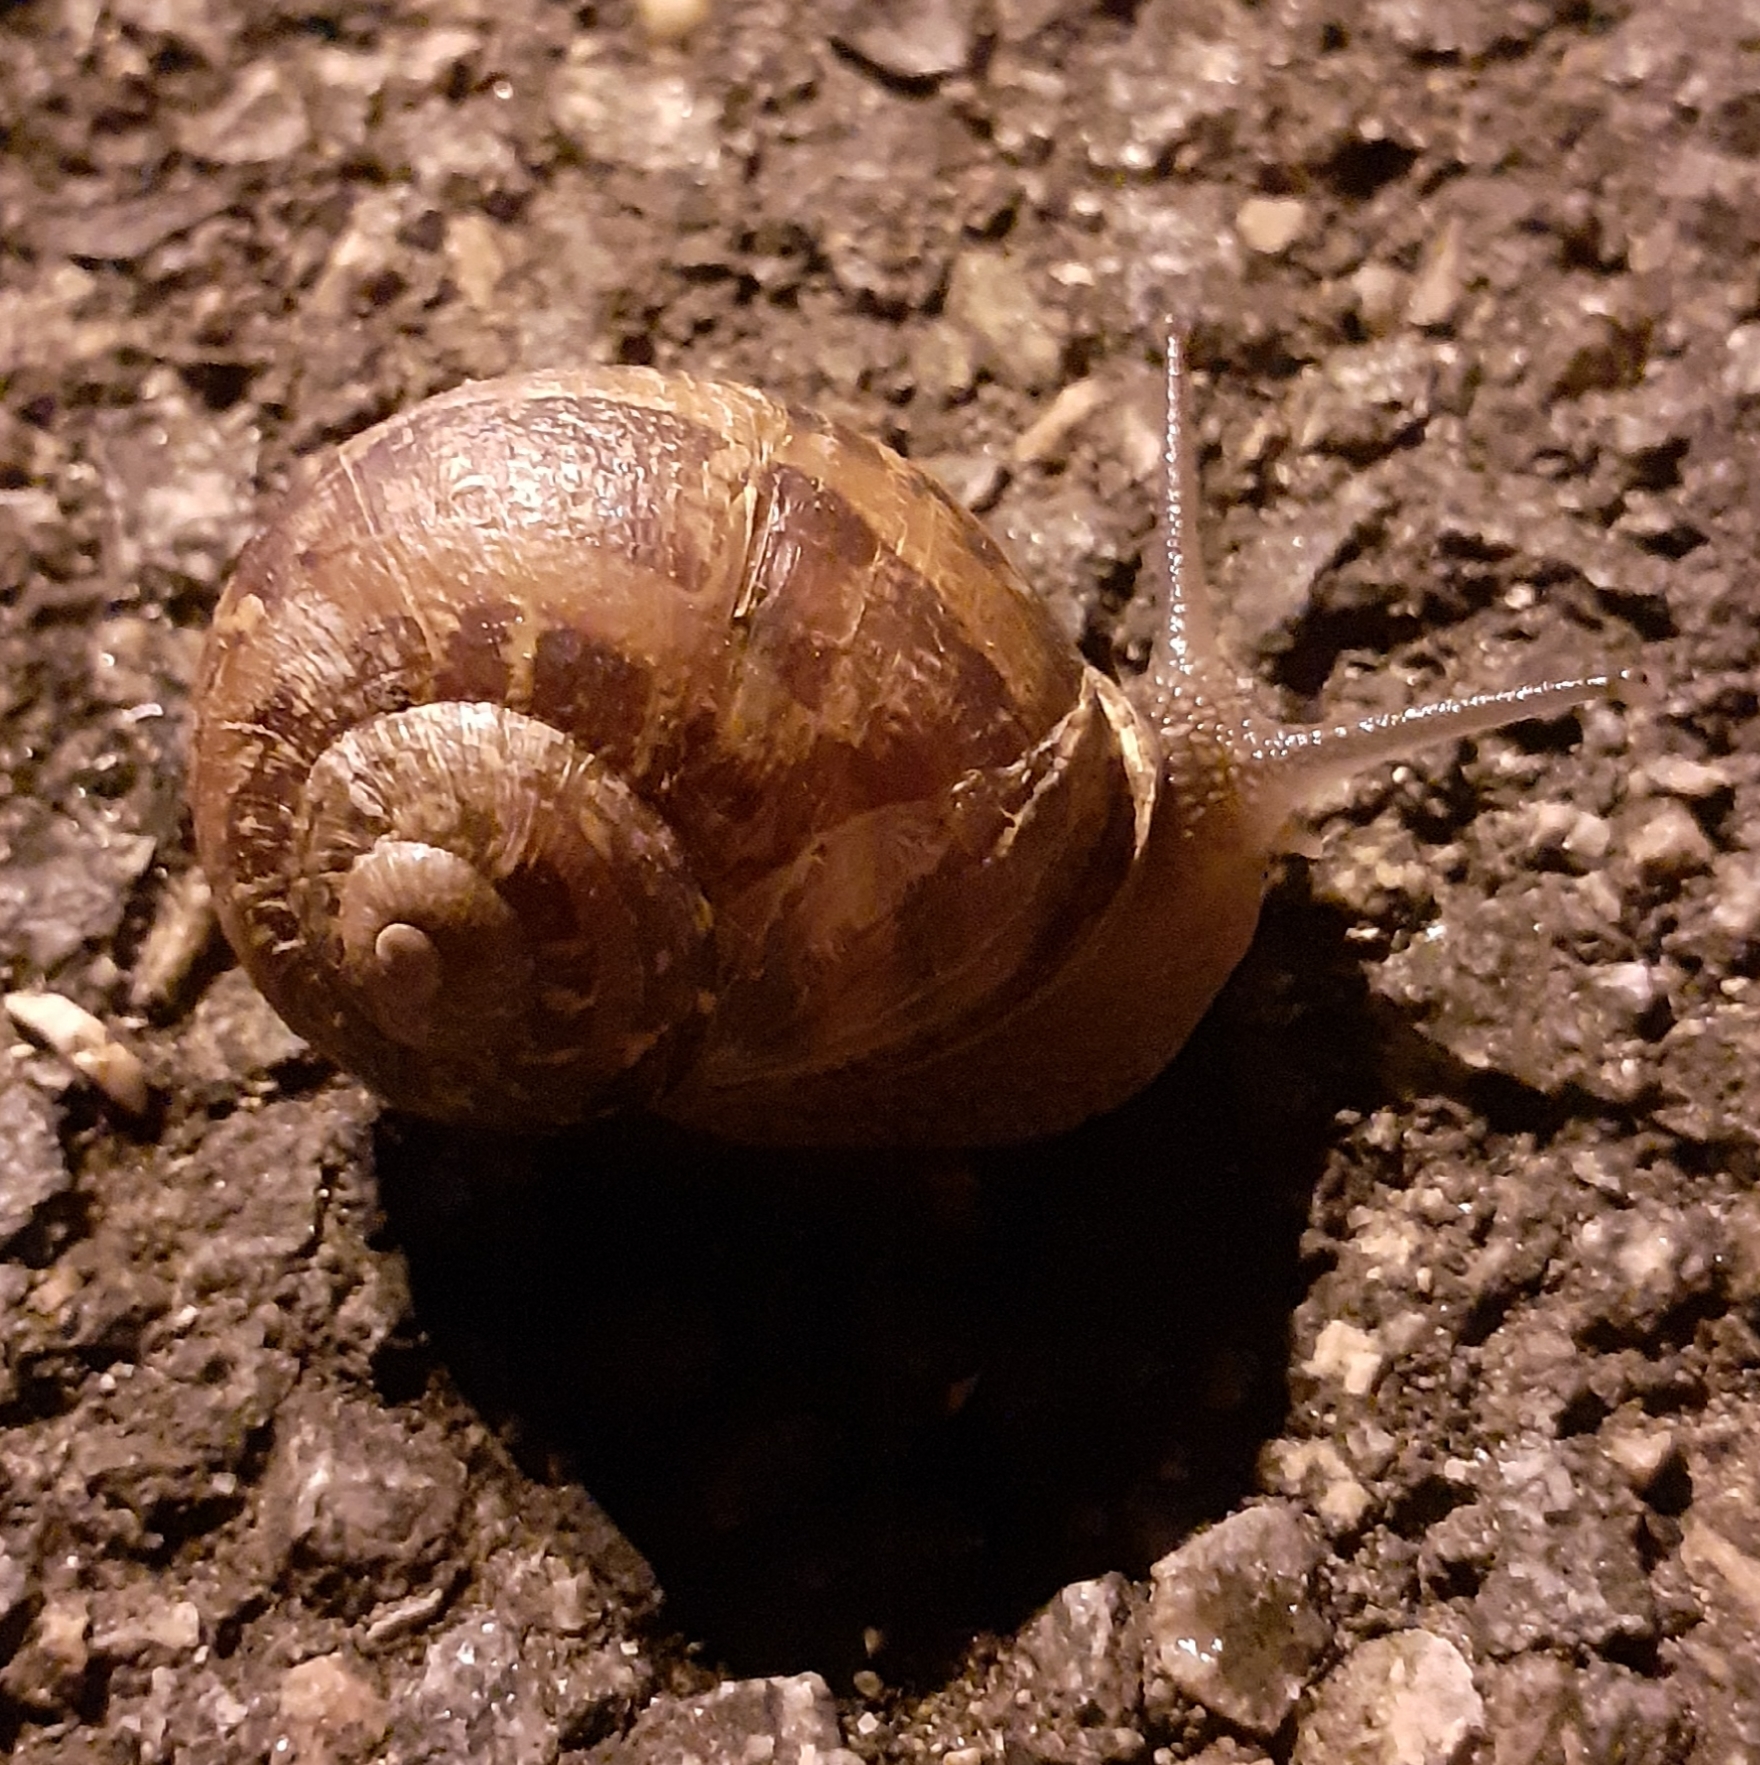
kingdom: Animalia
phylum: Mollusca
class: Gastropoda
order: Stylommatophora
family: Helicidae
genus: Cornu
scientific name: Cornu aspersum
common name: Brown garden snail
